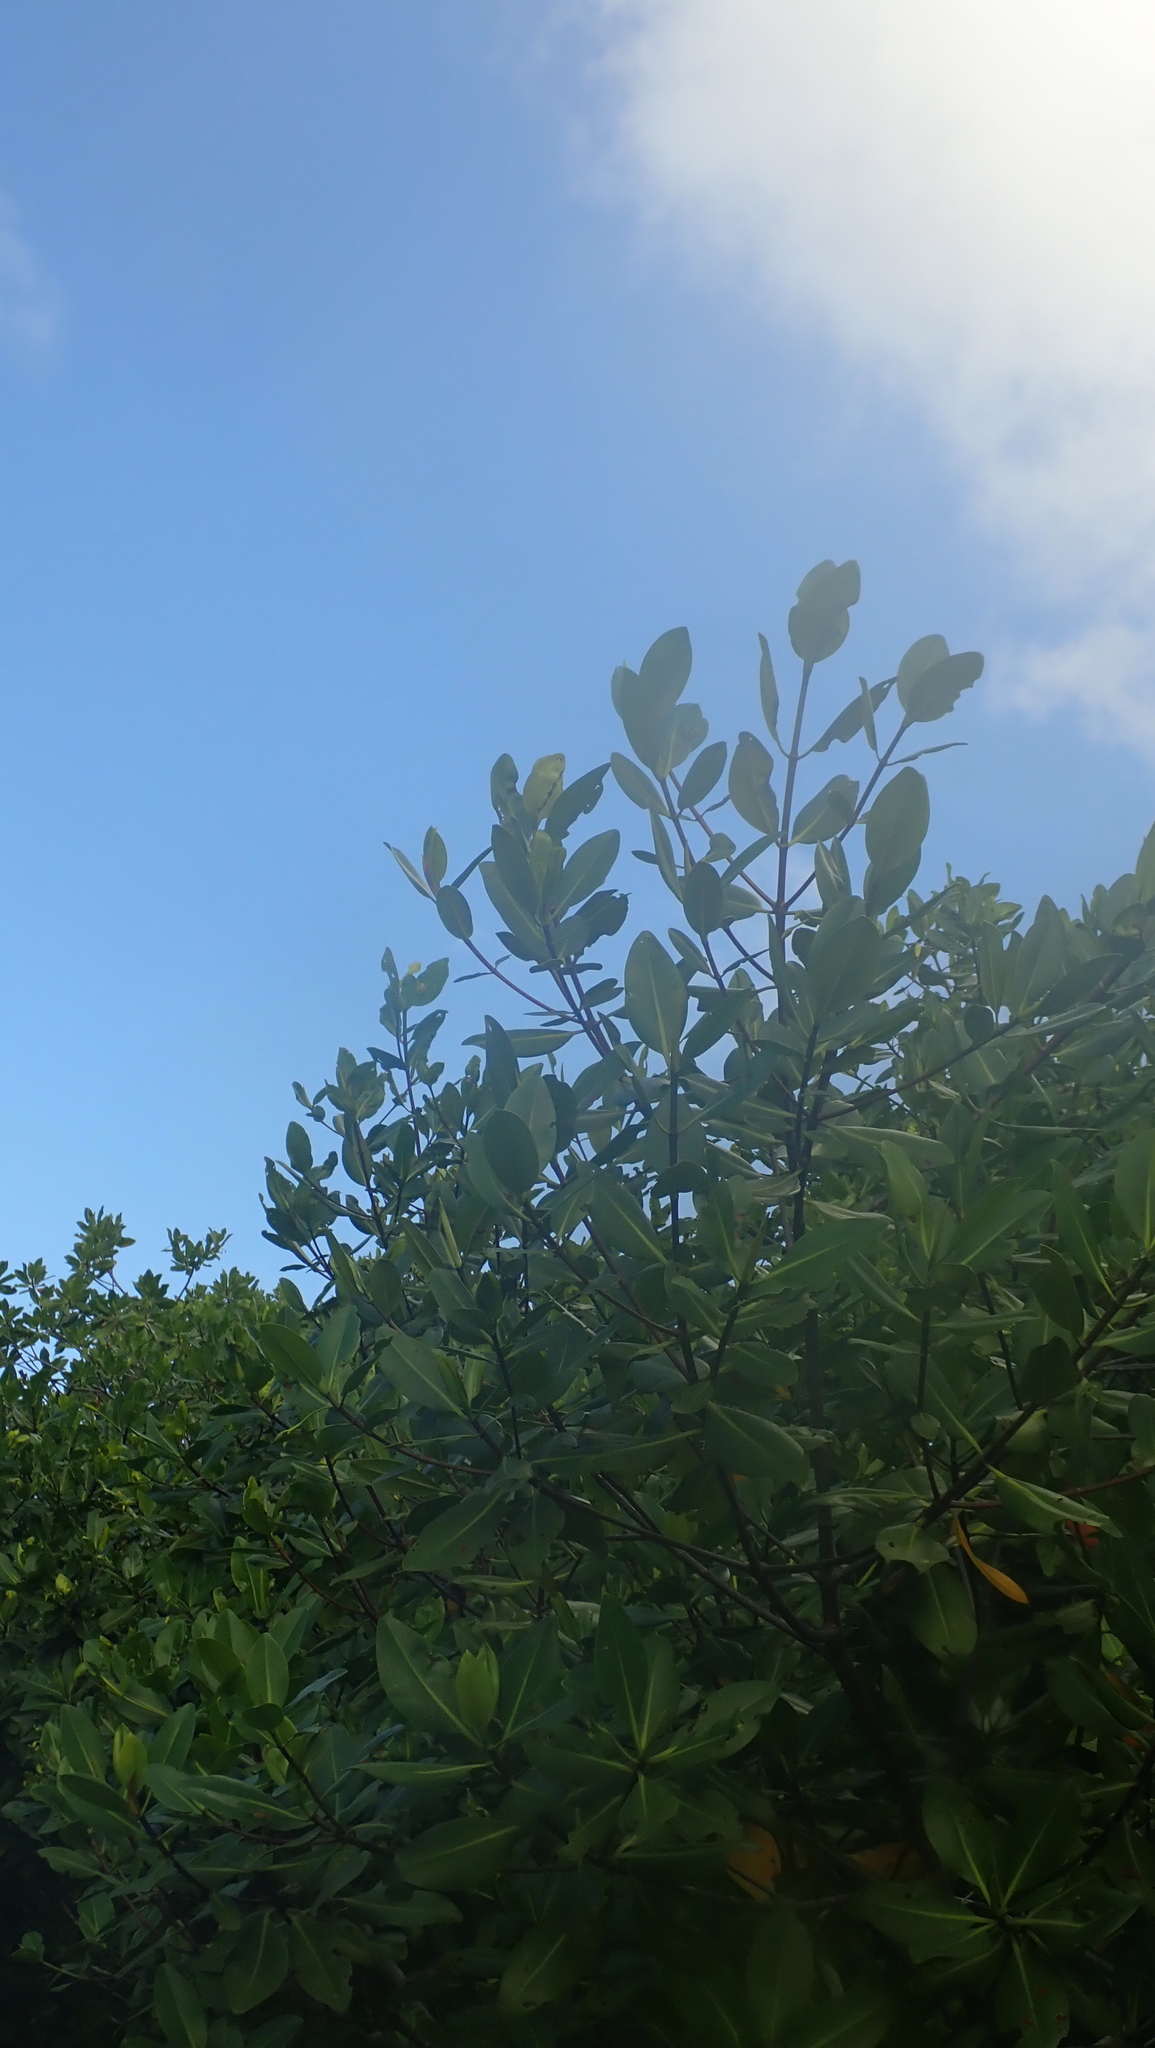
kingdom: Plantae
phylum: Tracheophyta
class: Magnoliopsida
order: Malpighiales
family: Rhizophoraceae
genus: Rhizophora
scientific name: Rhizophora mangle
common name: Red mangrove
